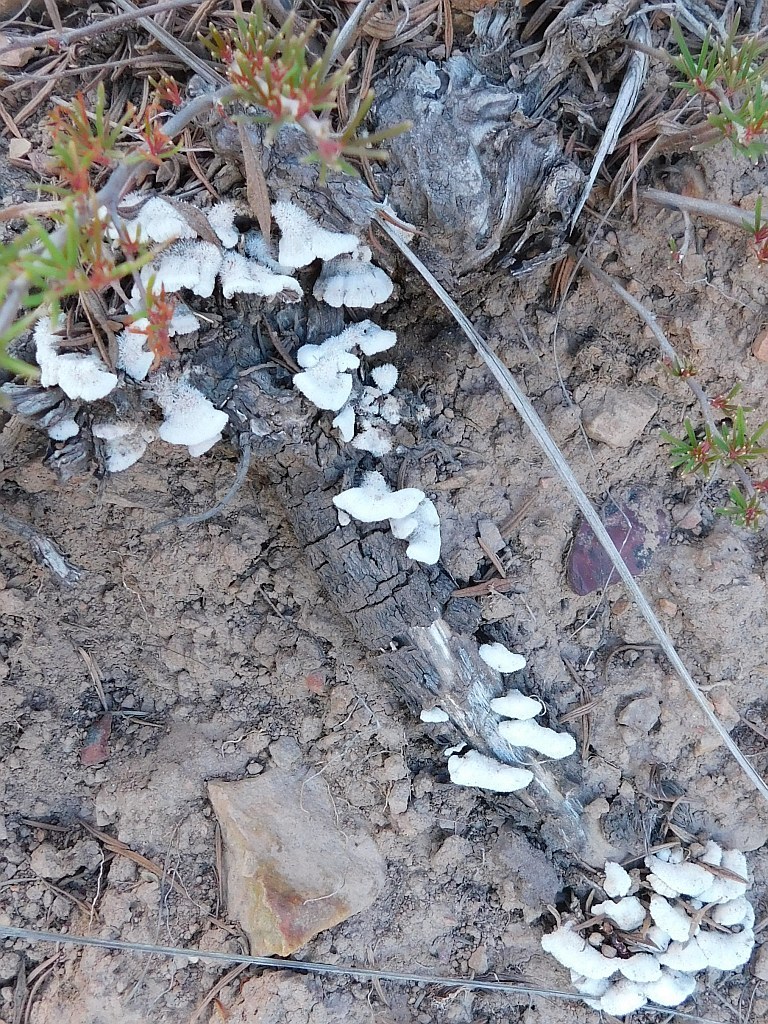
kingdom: Plantae
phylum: Tracheophyta
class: Magnoliopsida
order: Sapindales
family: Anacardiaceae
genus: Searsia
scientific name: Searsia rosmarinifolia
